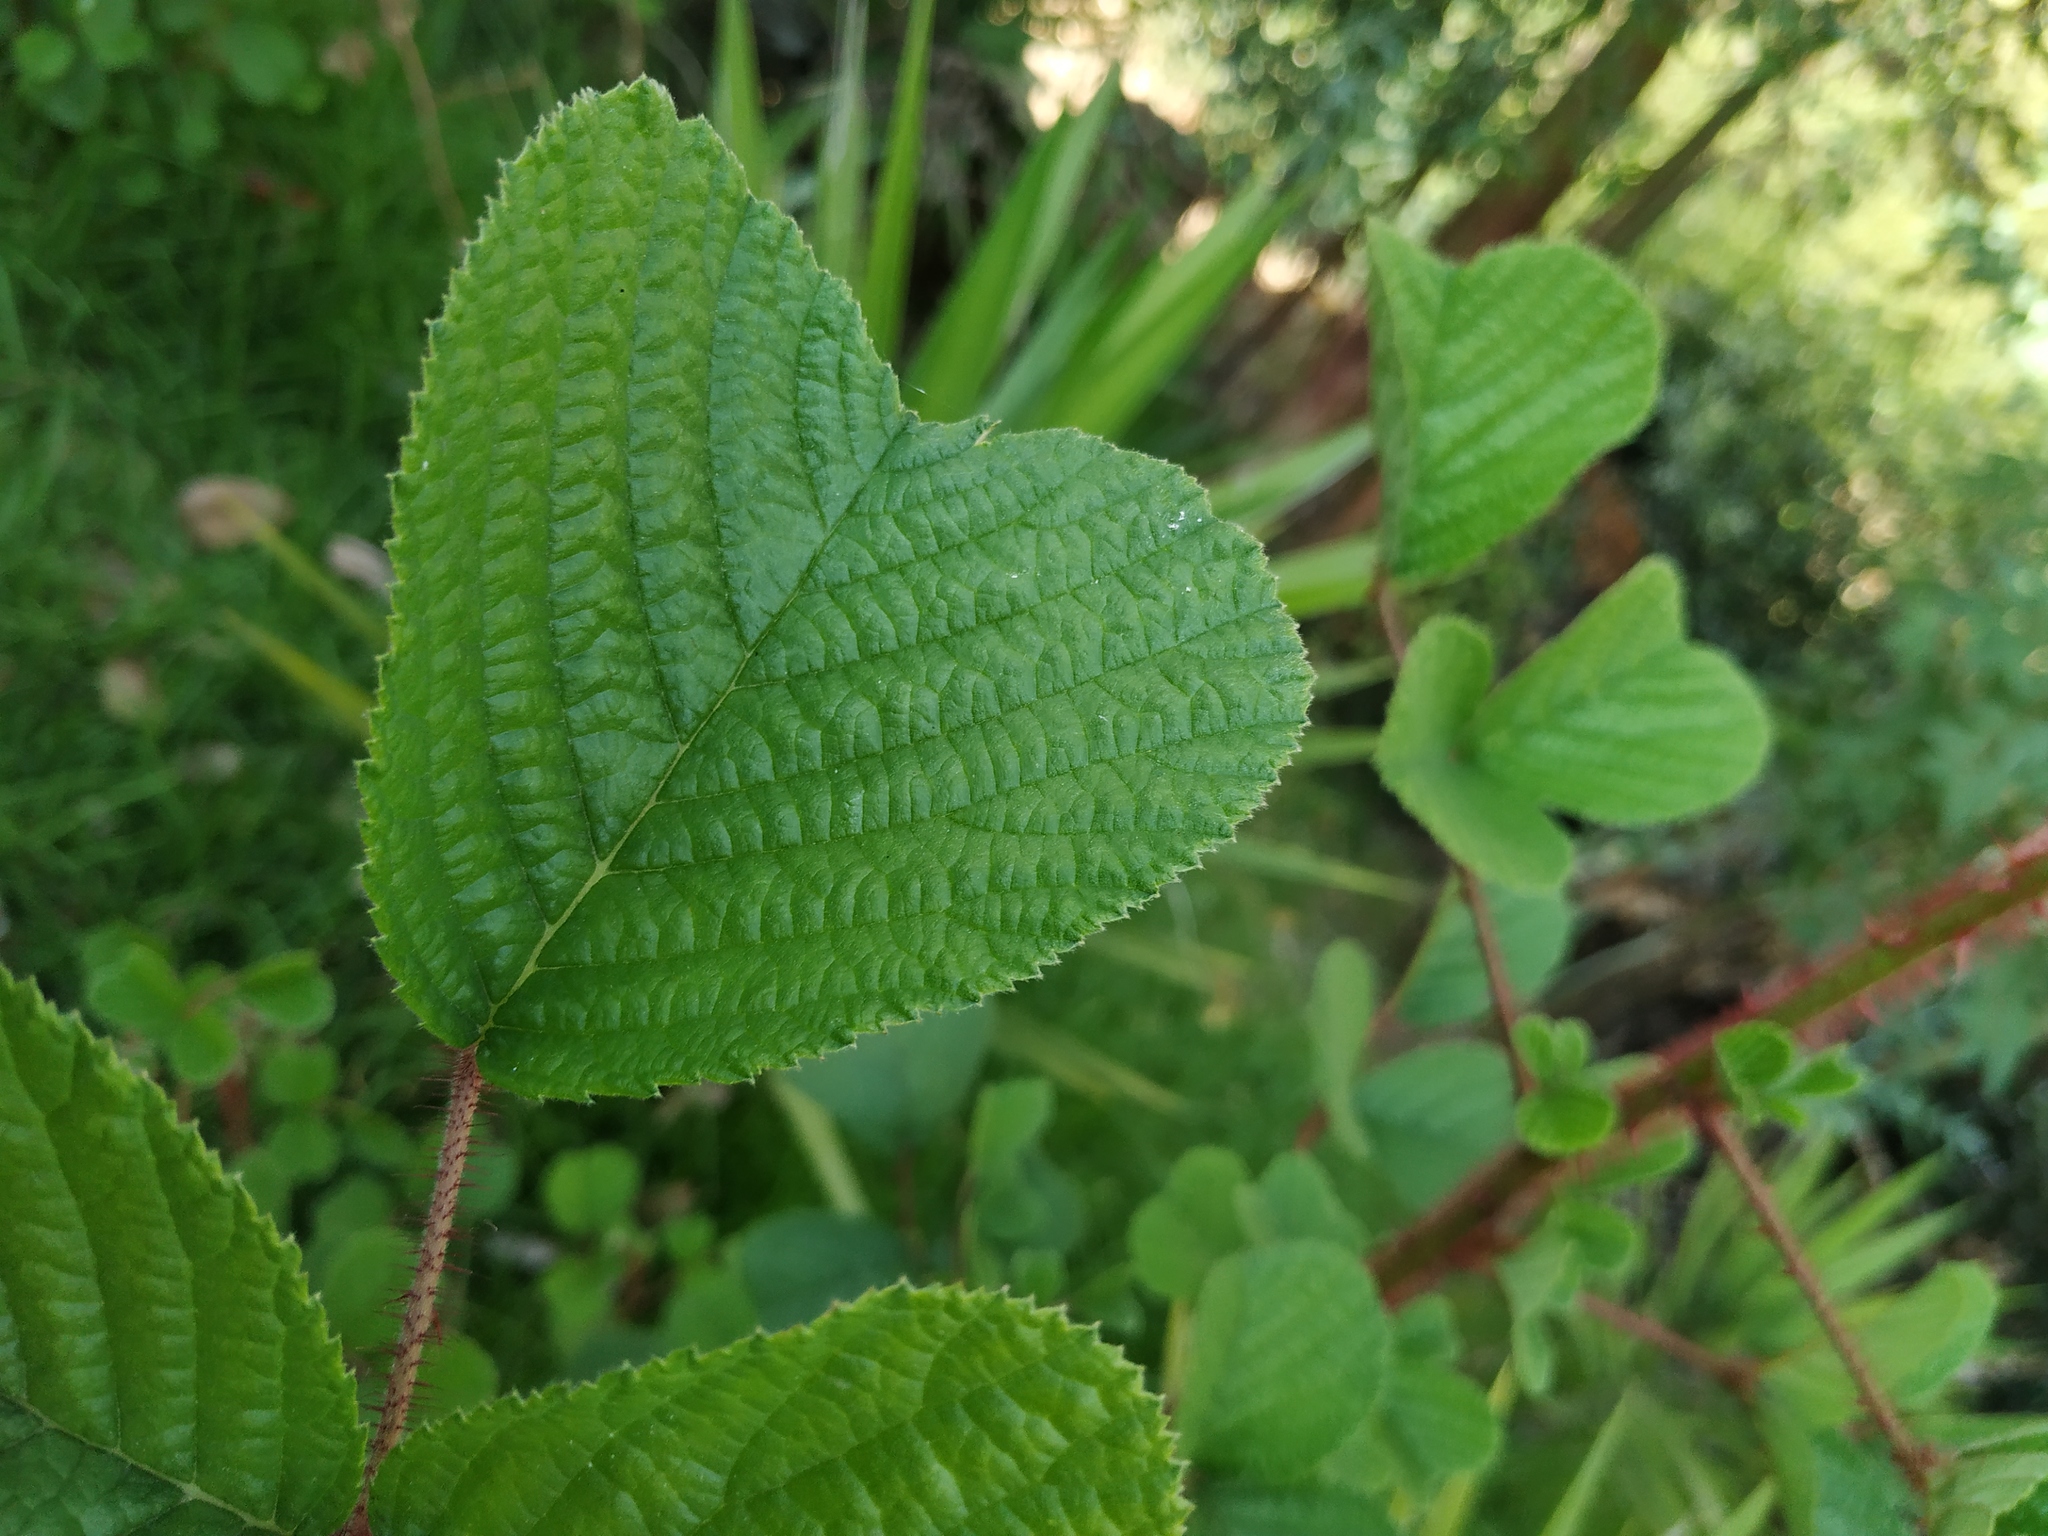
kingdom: Plantae
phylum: Tracheophyta
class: Magnoliopsida
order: Rosales
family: Rosaceae
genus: Rubus
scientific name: Rubus ellipticus
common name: Cheeseberry
